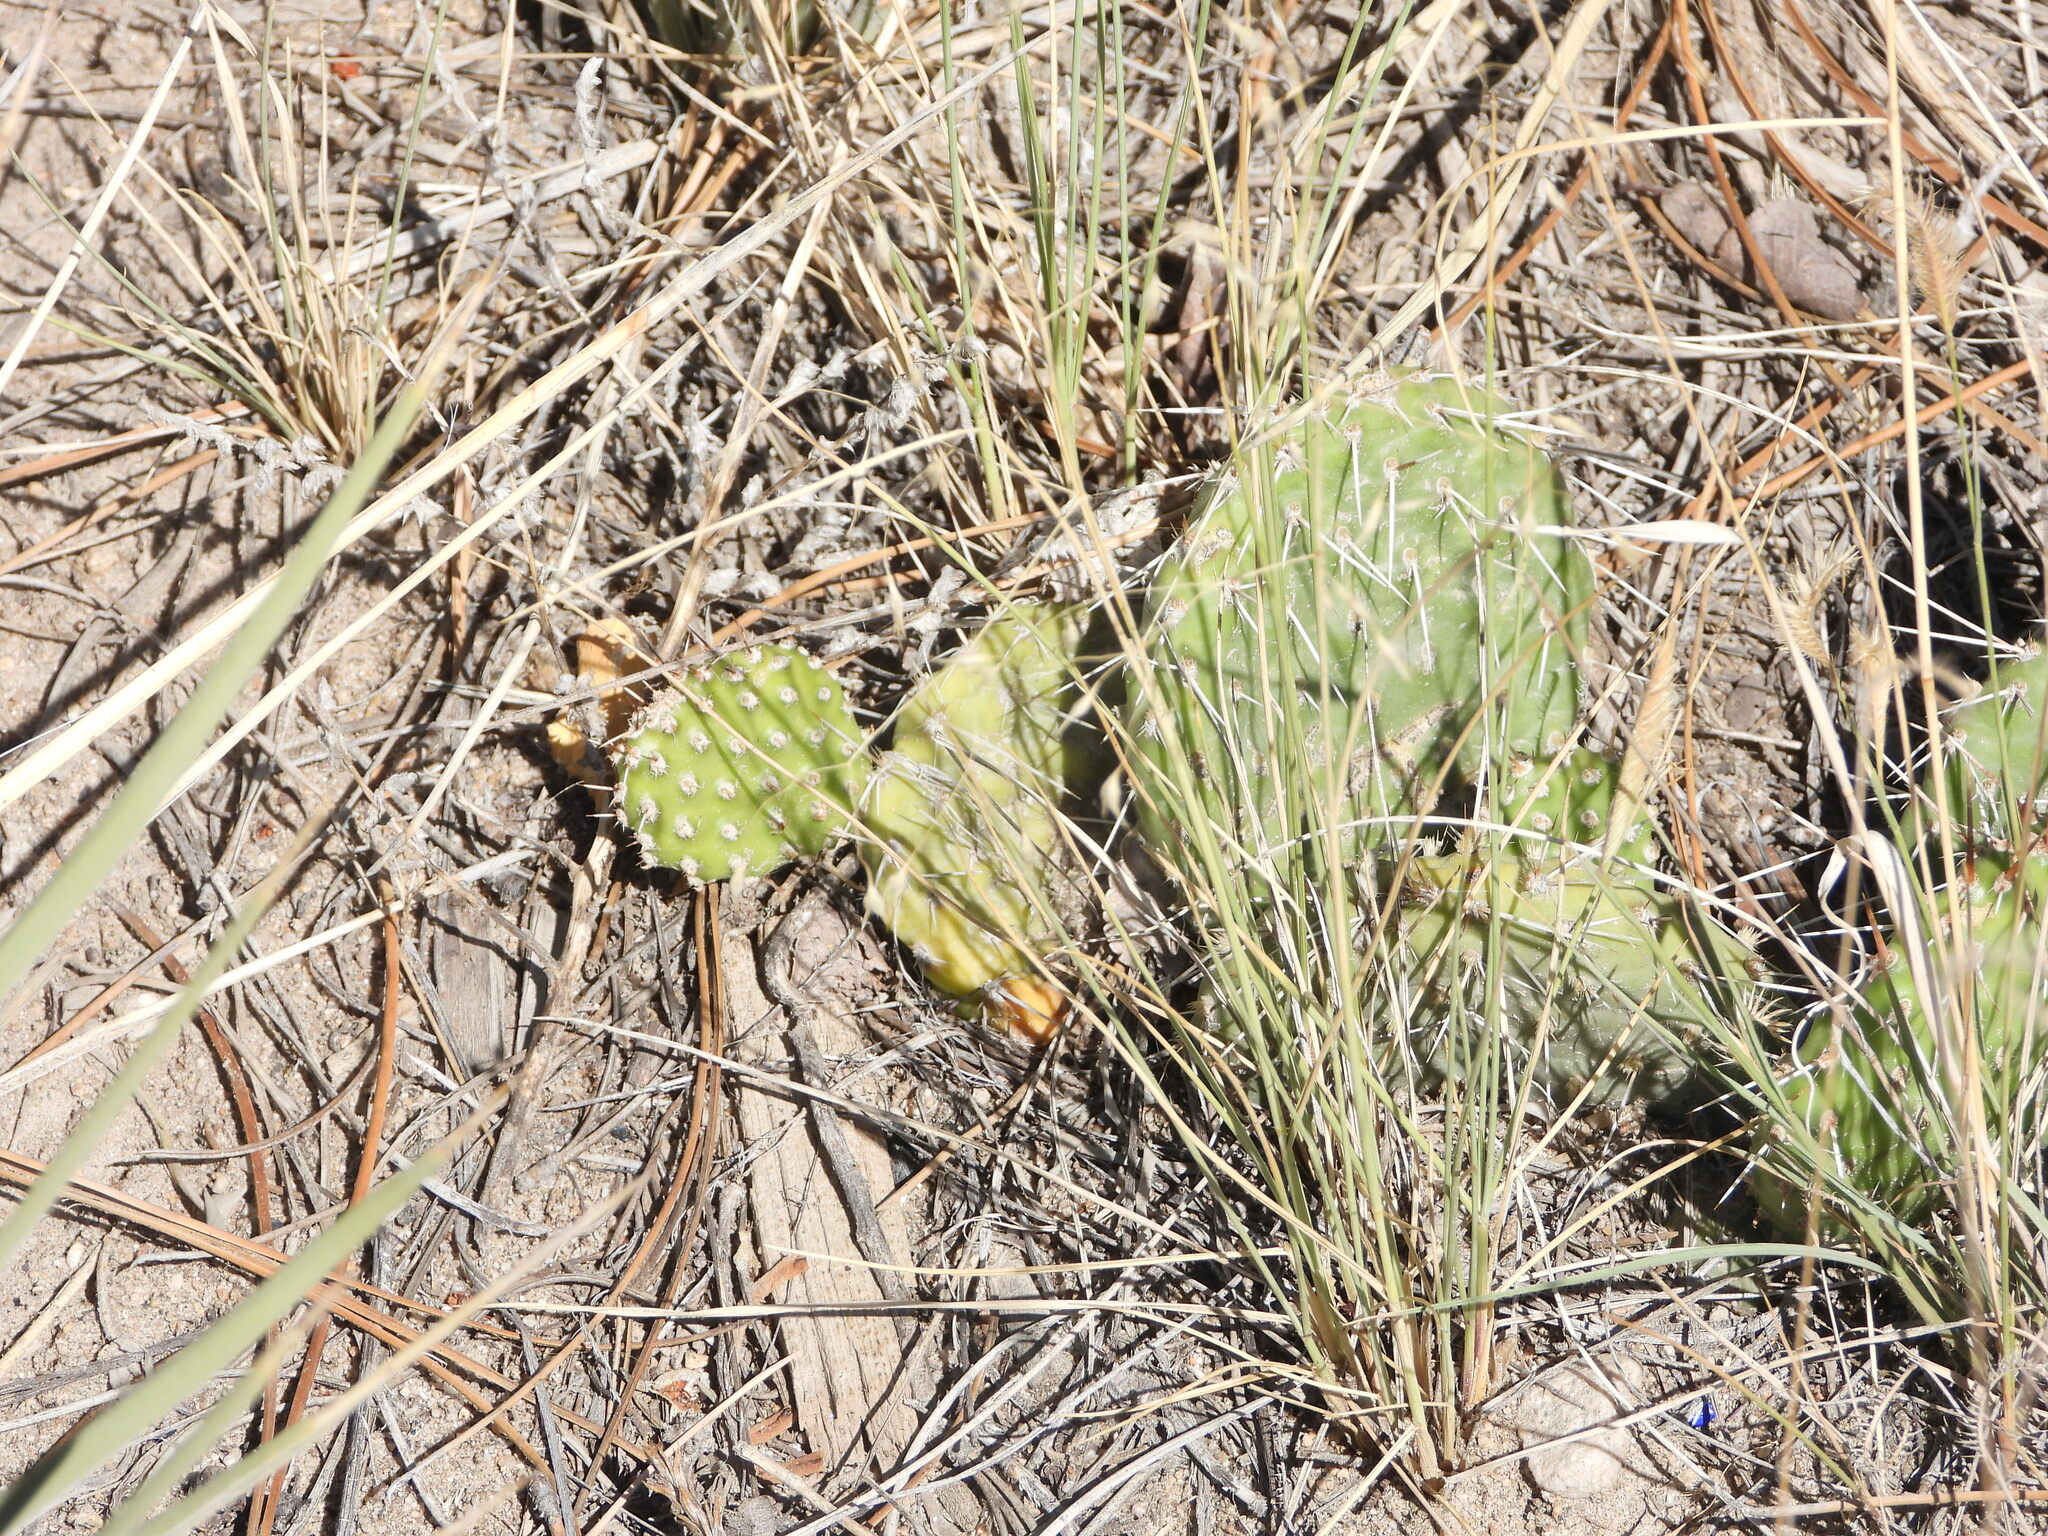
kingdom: Plantae
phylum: Tracheophyta
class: Magnoliopsida
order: Caryophyllales
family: Cactaceae
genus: Opuntia
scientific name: Opuntia polyacantha
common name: Plains prickly-pear
